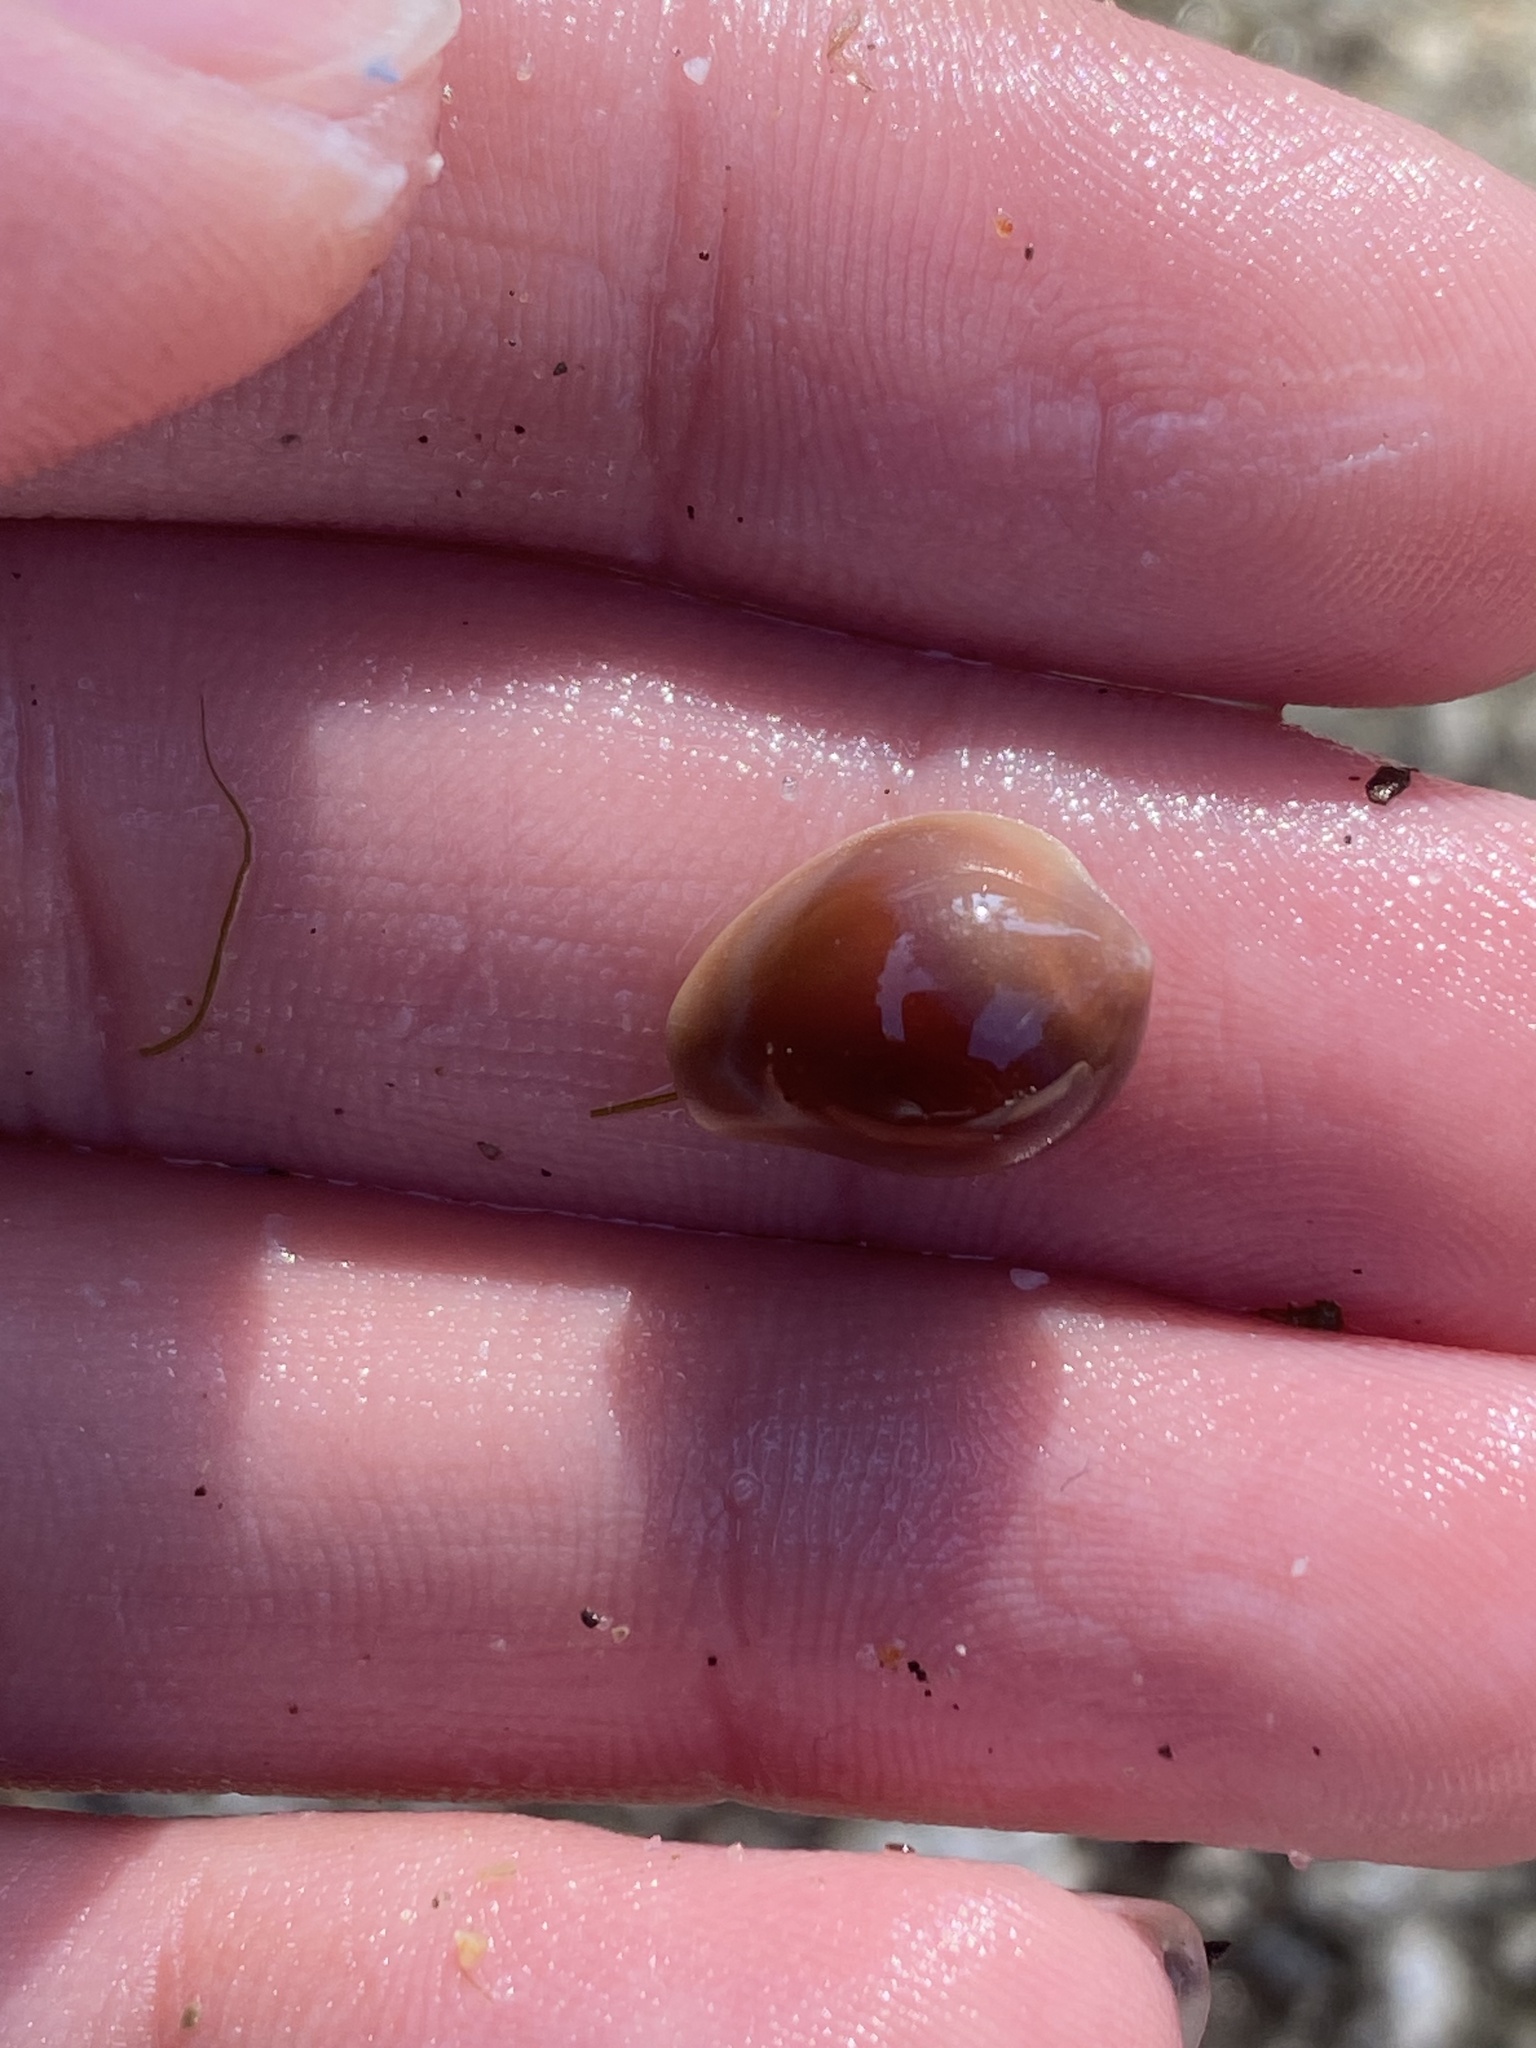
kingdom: Animalia
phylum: Mollusca
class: Gastropoda
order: Littorinimorpha
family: Eratoidae
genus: Hespererato
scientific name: Hespererato vitellina
